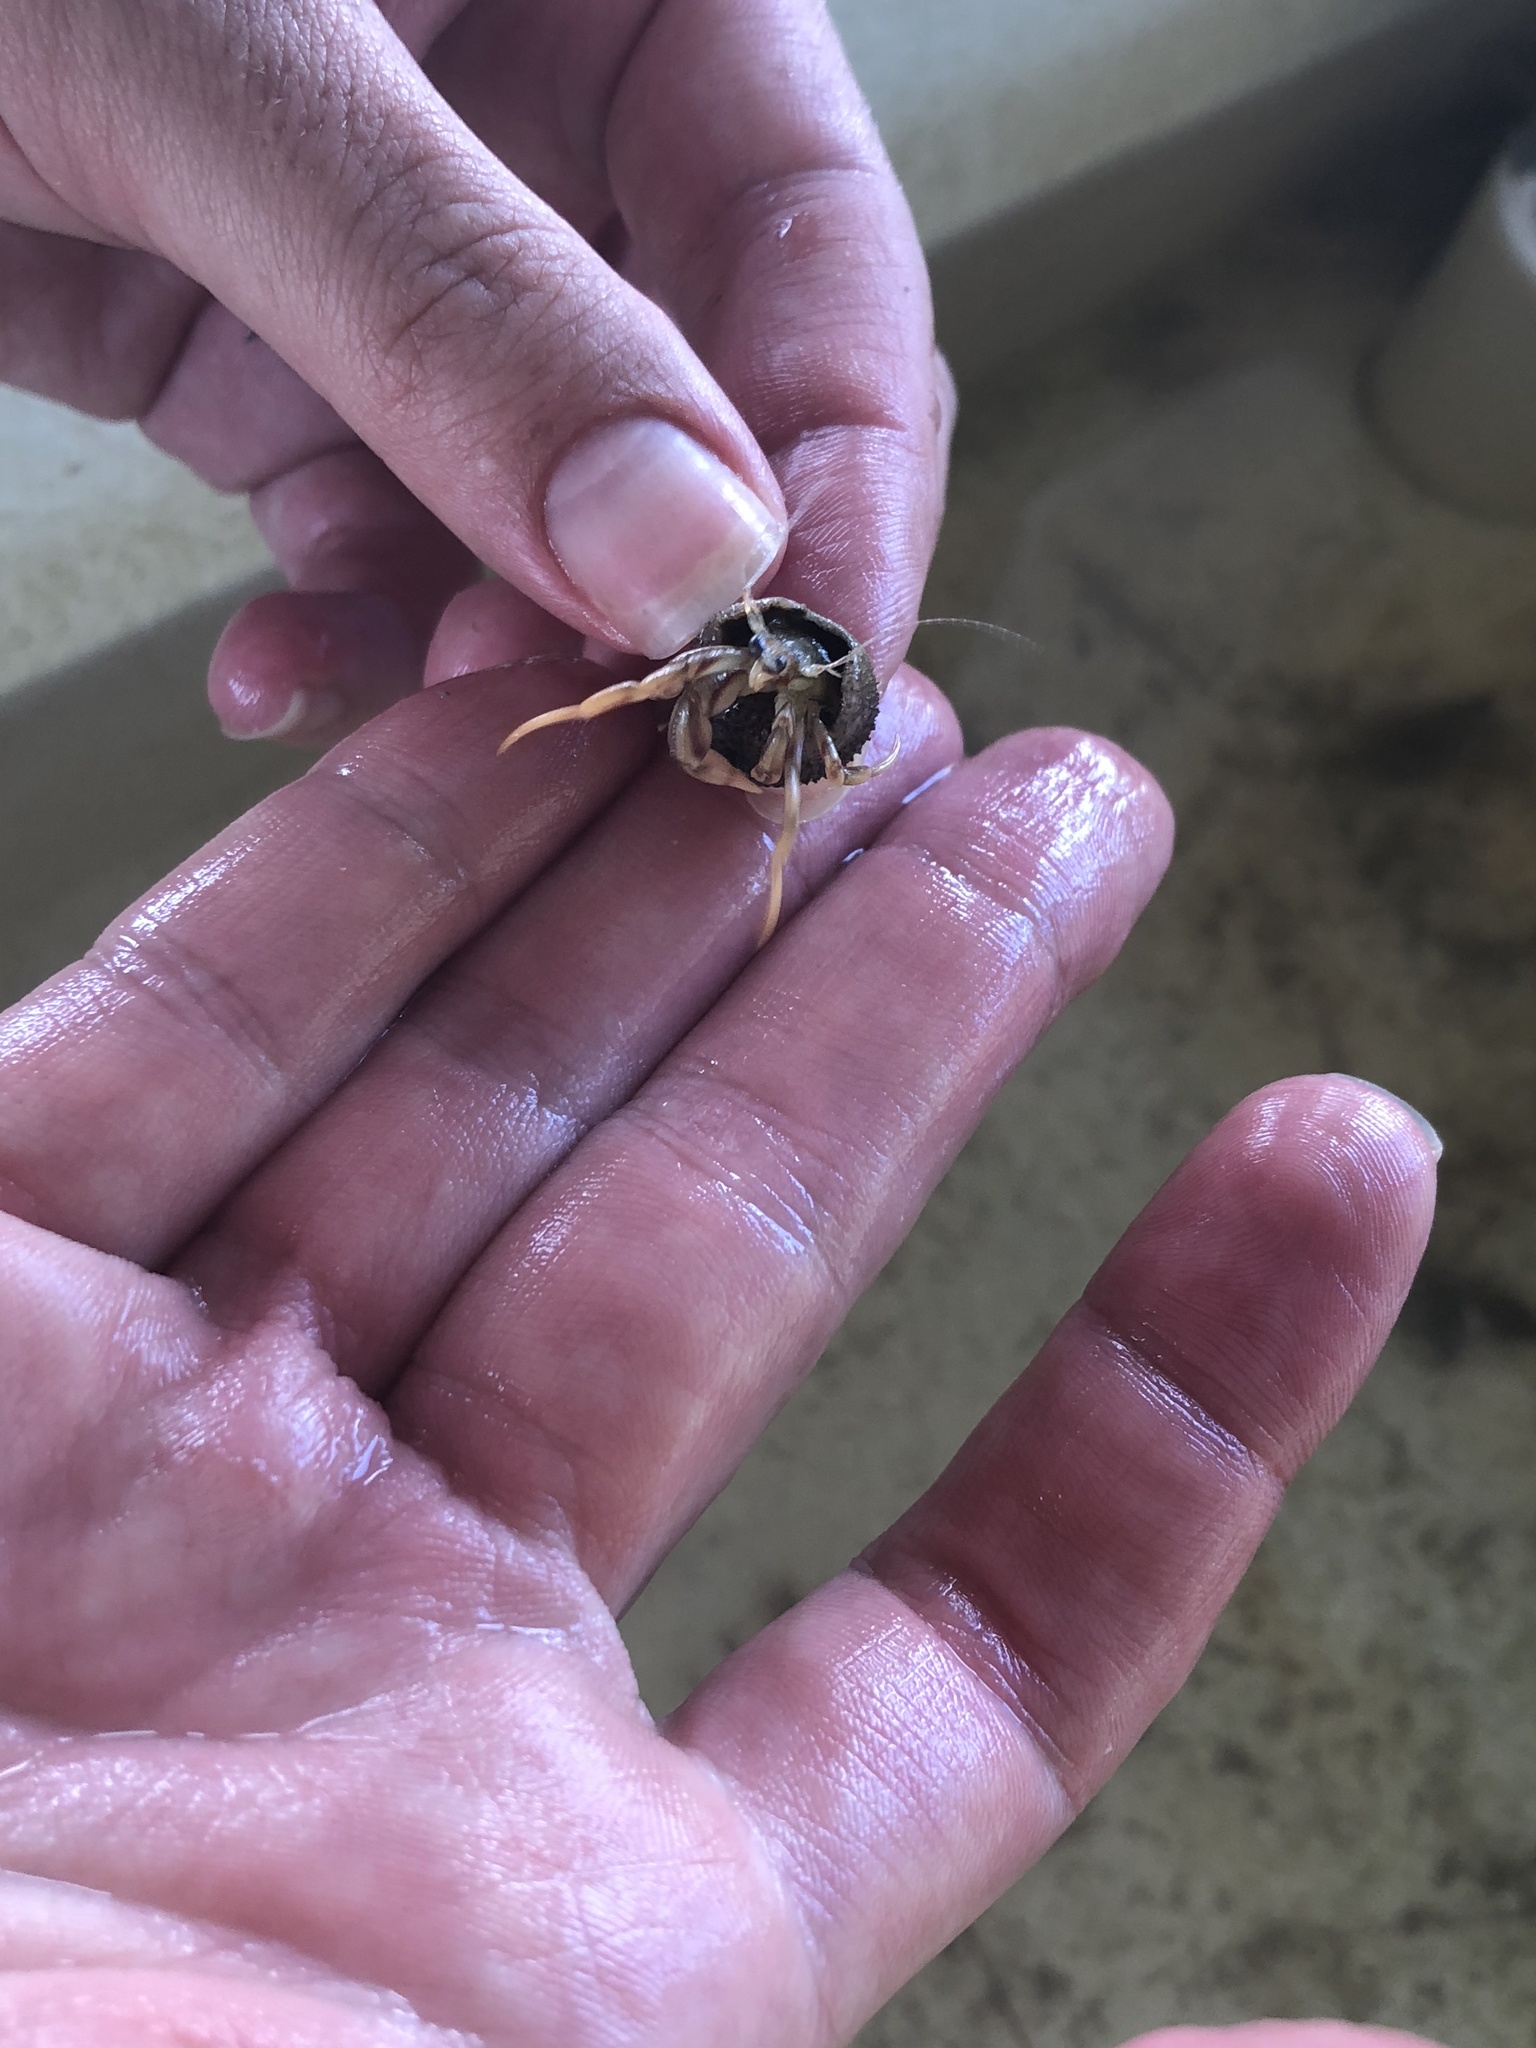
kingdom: Animalia
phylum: Arthropoda
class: Malacostraca
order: Decapoda
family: Paguridae
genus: Pagurus
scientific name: Pagurus longicarpus
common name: Long-armed hermit crab
